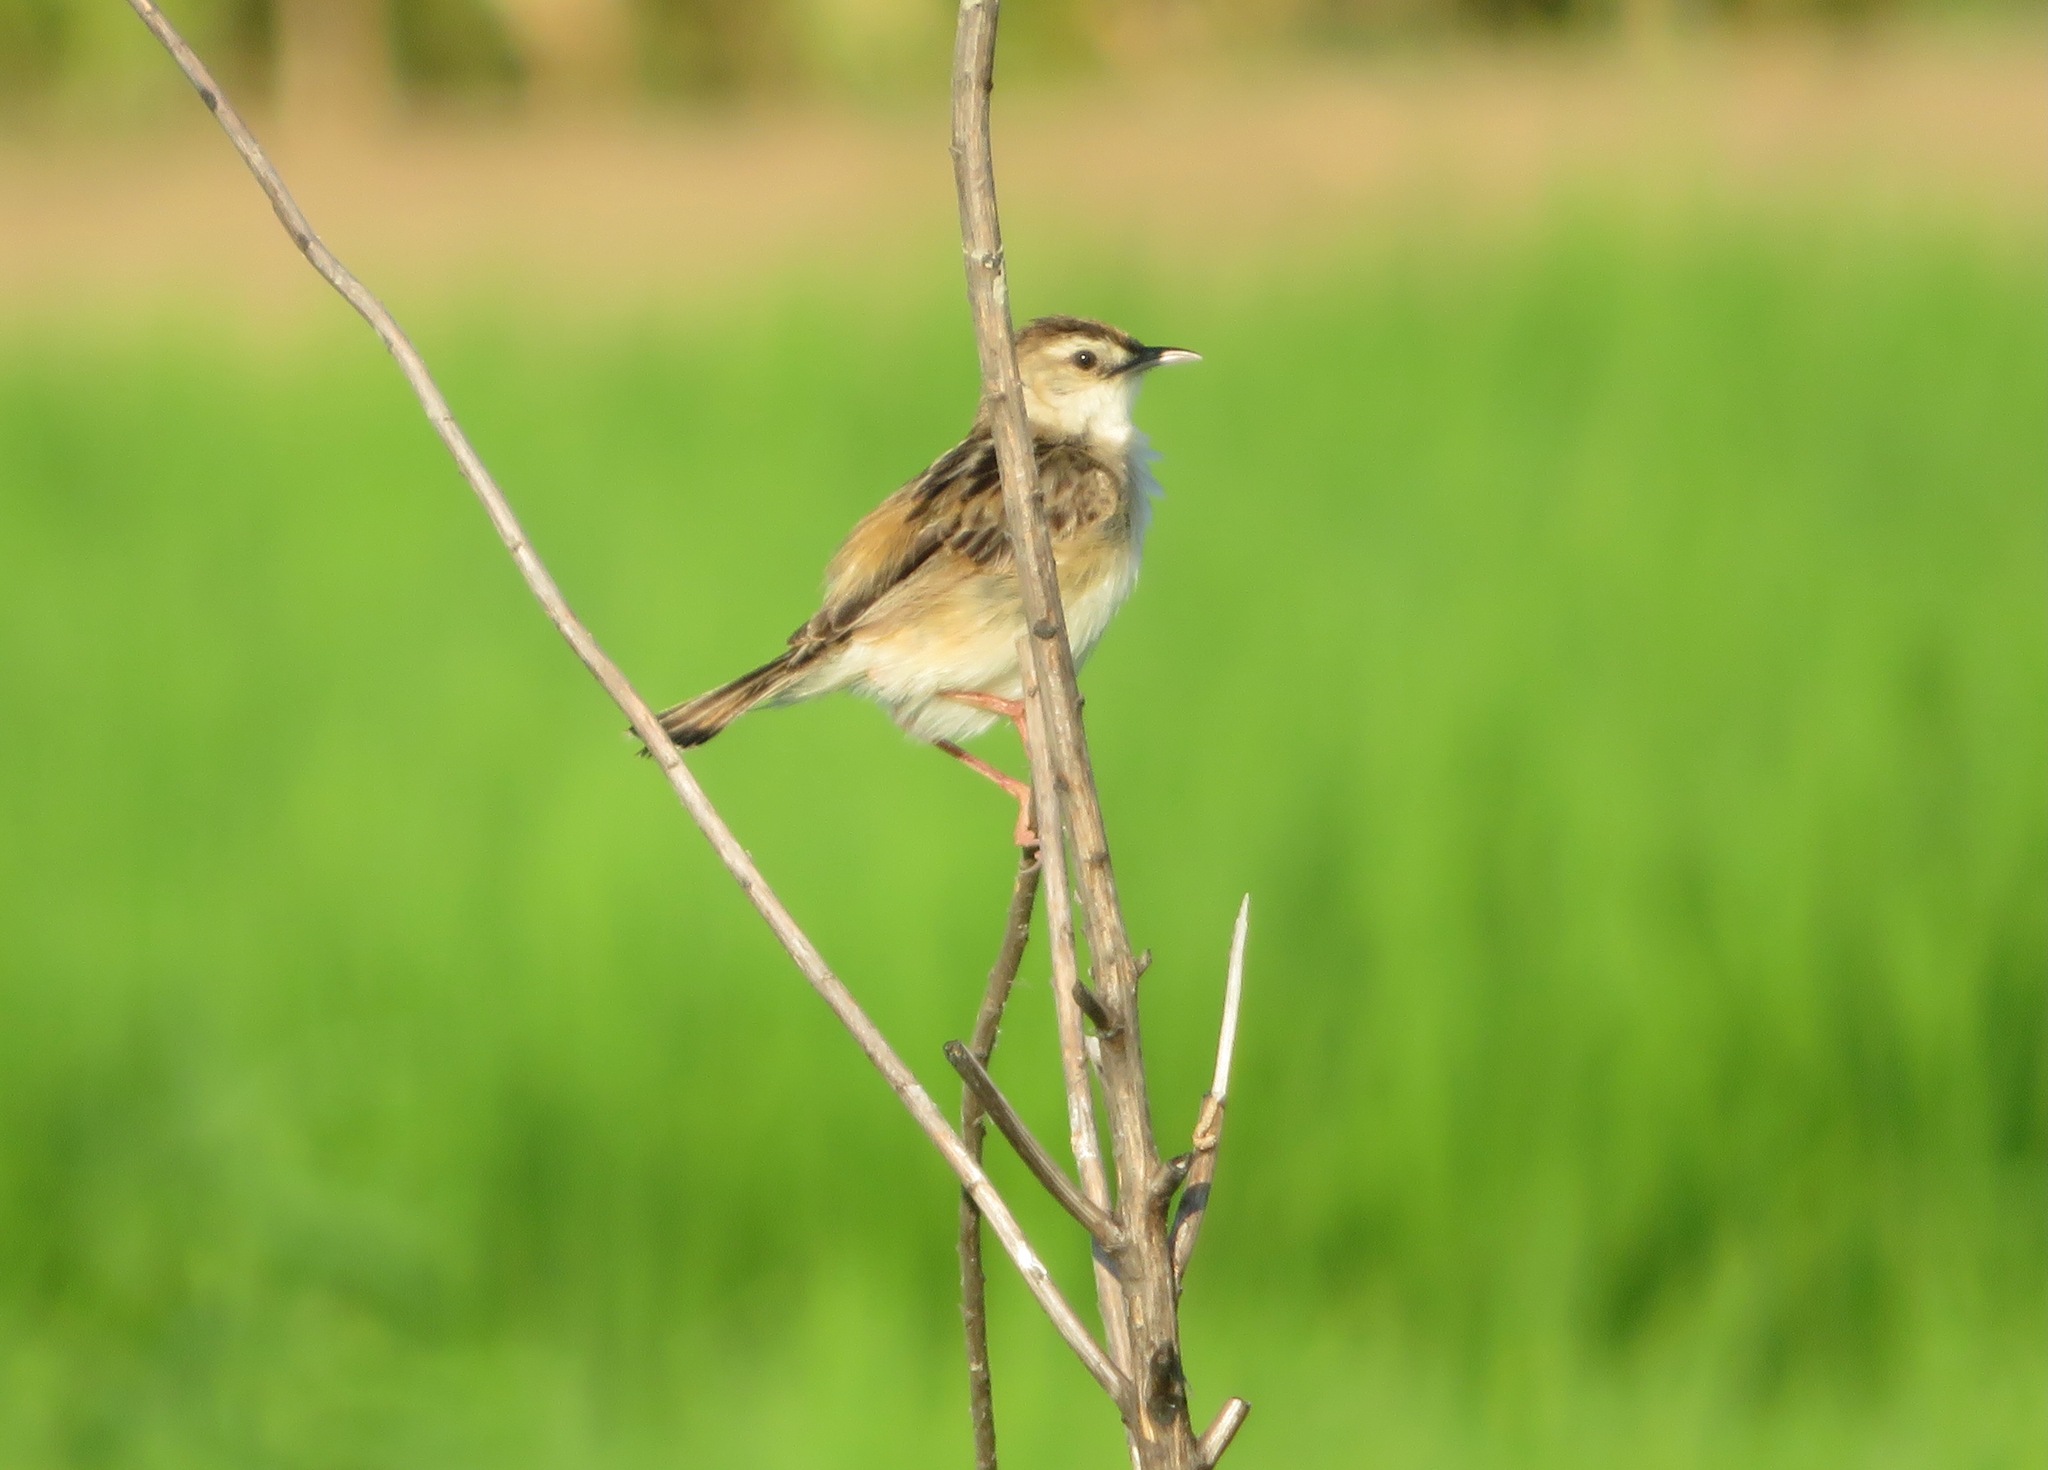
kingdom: Animalia
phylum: Chordata
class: Aves
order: Passeriformes
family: Cisticolidae
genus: Cisticola
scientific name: Cisticola juncidis
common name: Zitting cisticola
